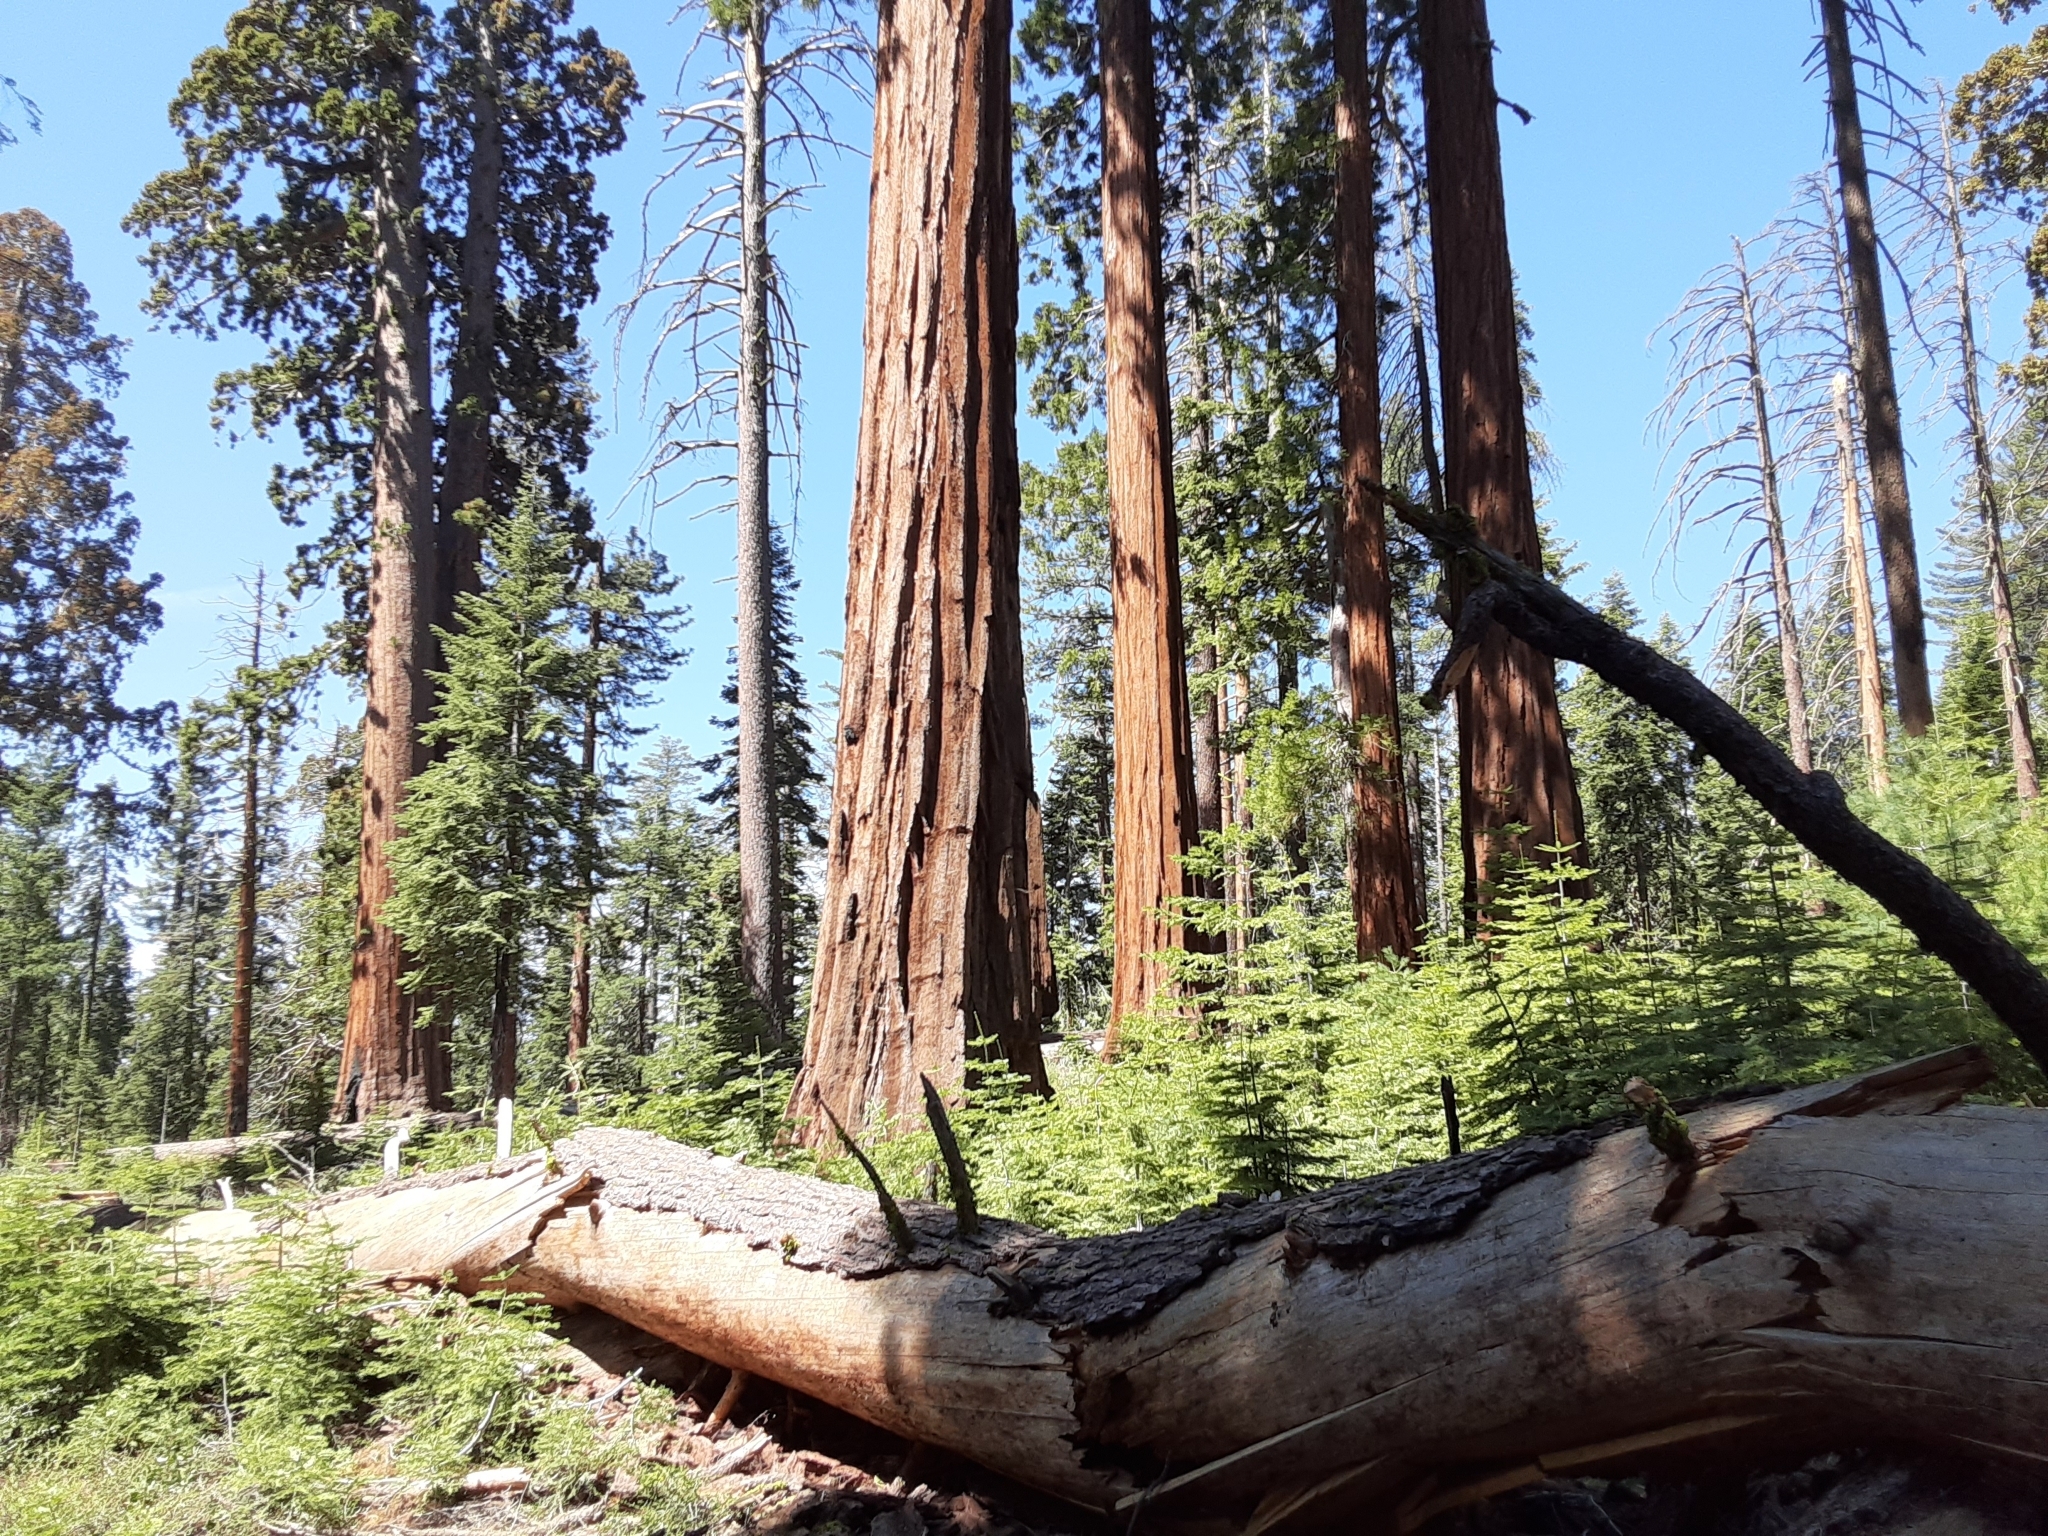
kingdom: Plantae
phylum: Tracheophyta
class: Pinopsida
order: Pinales
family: Cupressaceae
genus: Sequoiadendron
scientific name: Sequoiadendron giganteum
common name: Wellingtonia
